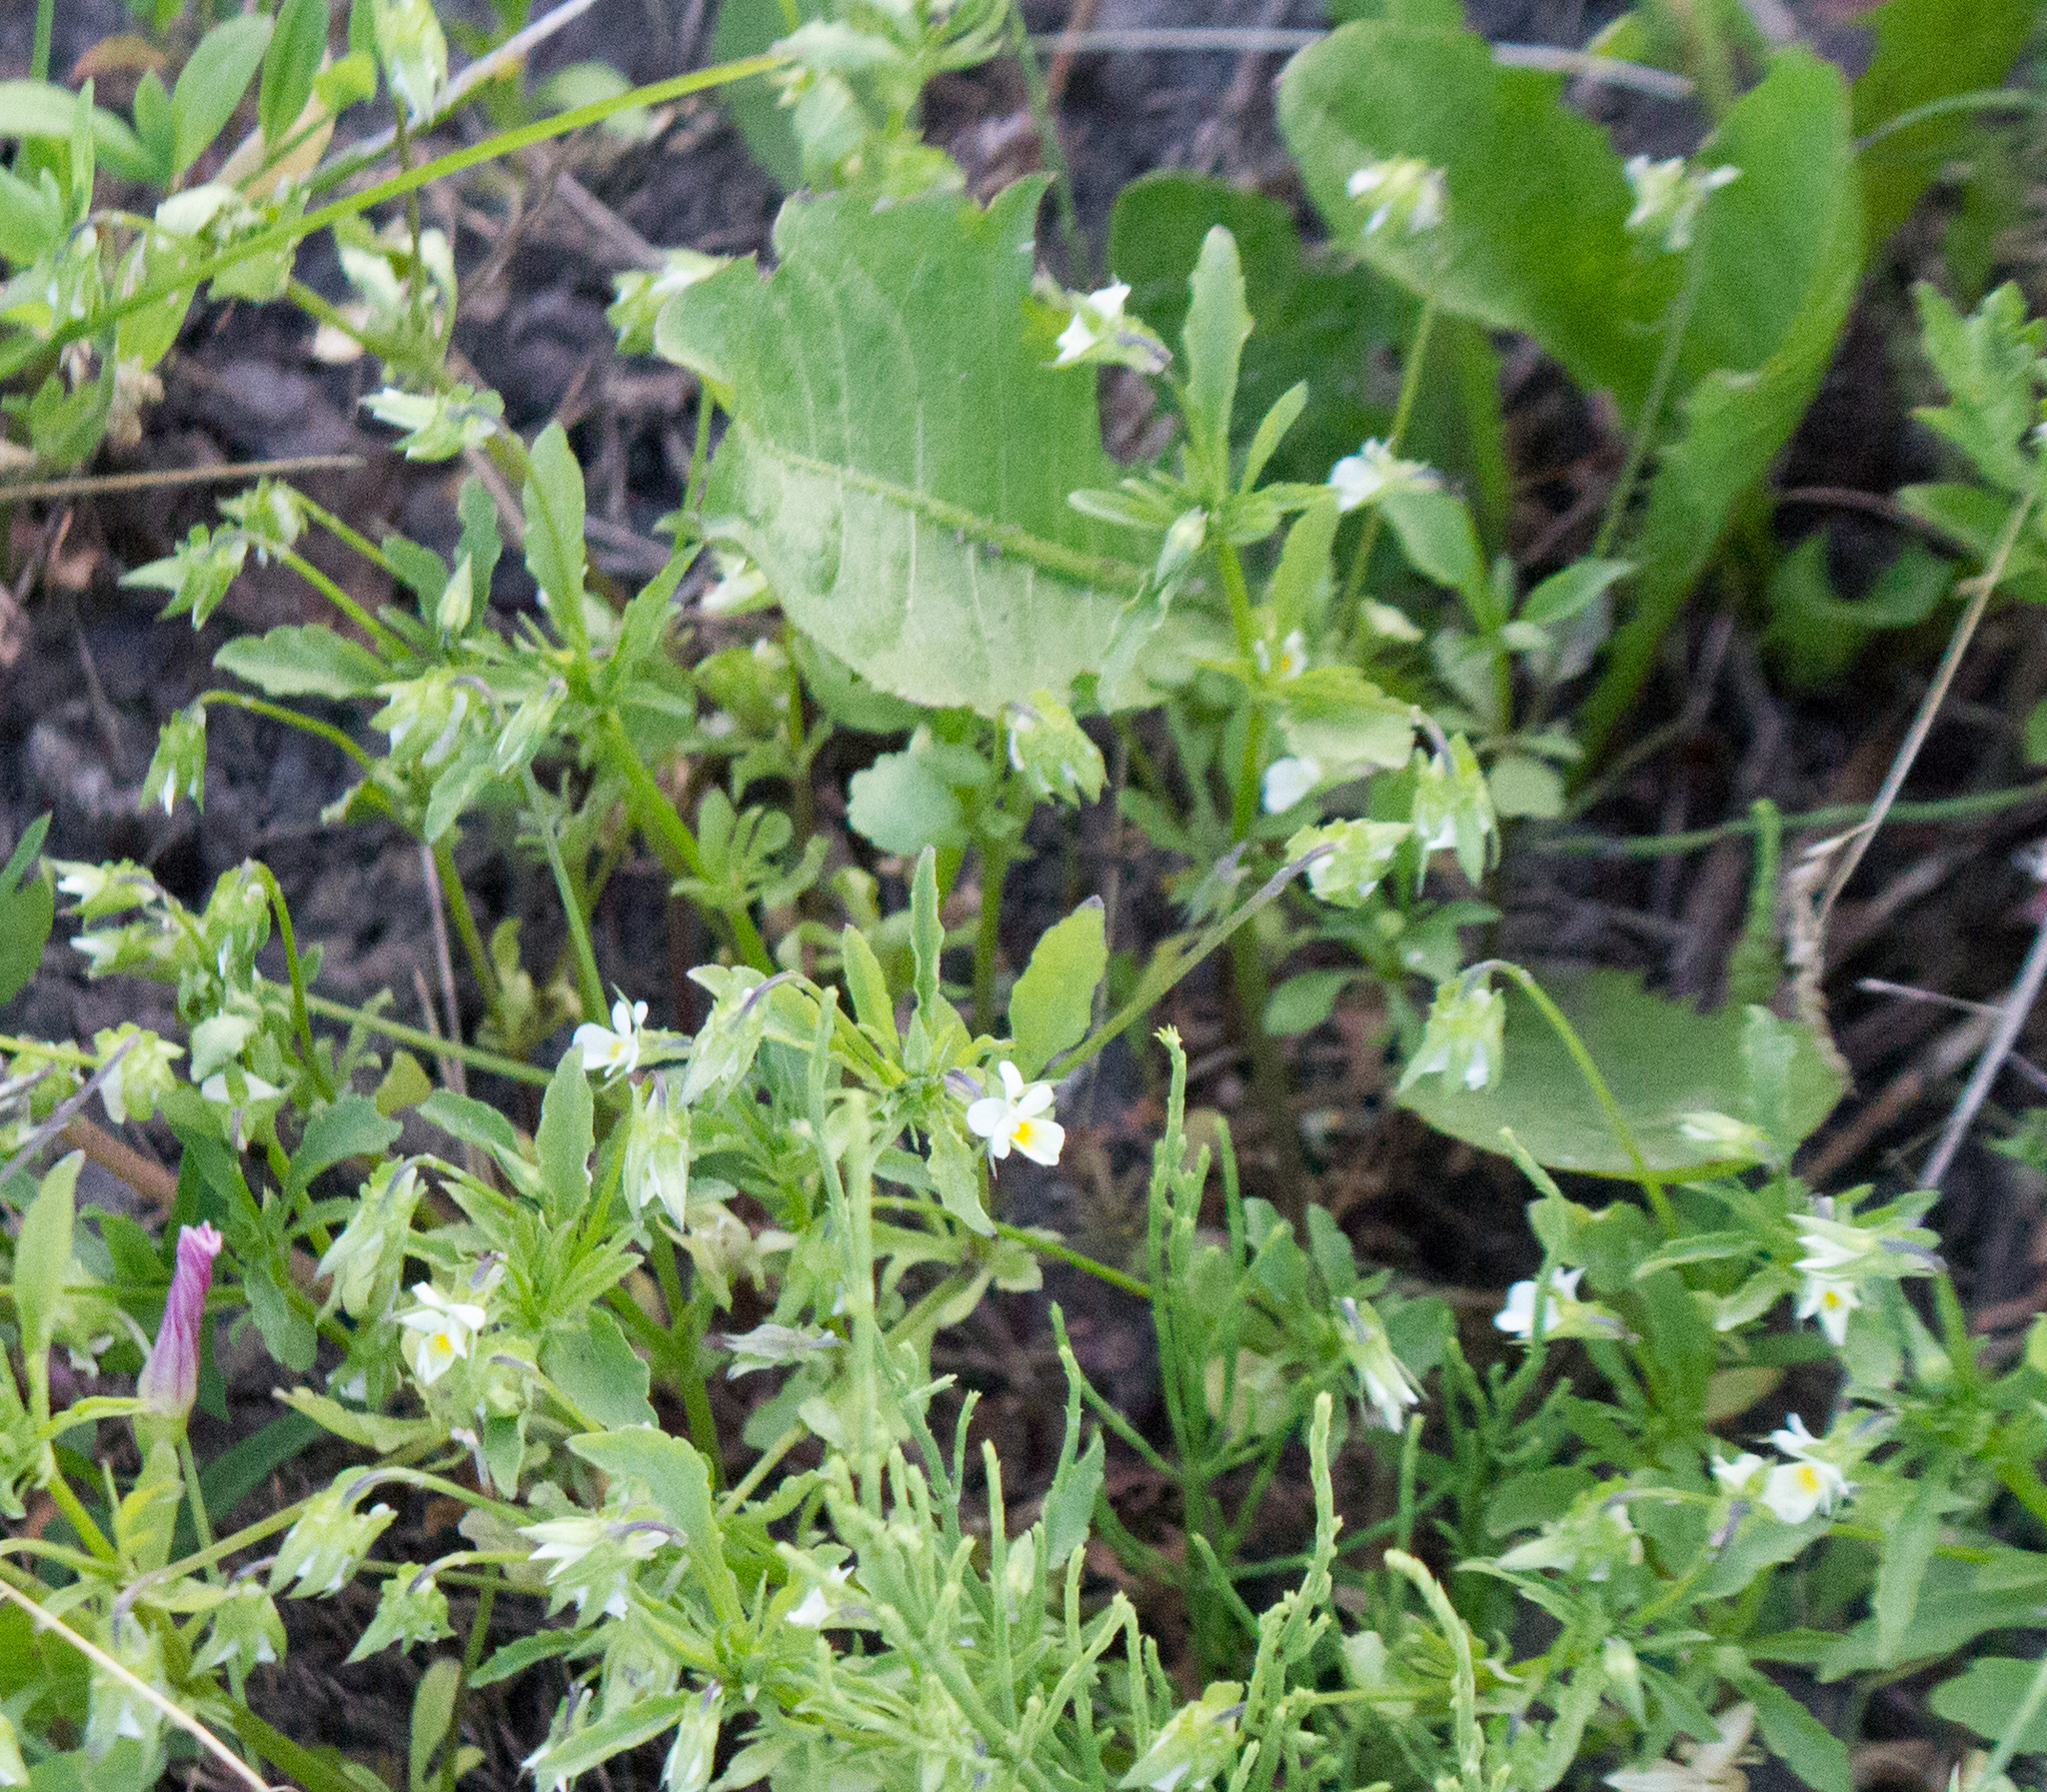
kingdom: Plantae
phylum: Tracheophyta
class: Magnoliopsida
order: Malpighiales
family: Violaceae
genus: Viola
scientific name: Viola arvensis
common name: Field pansy
